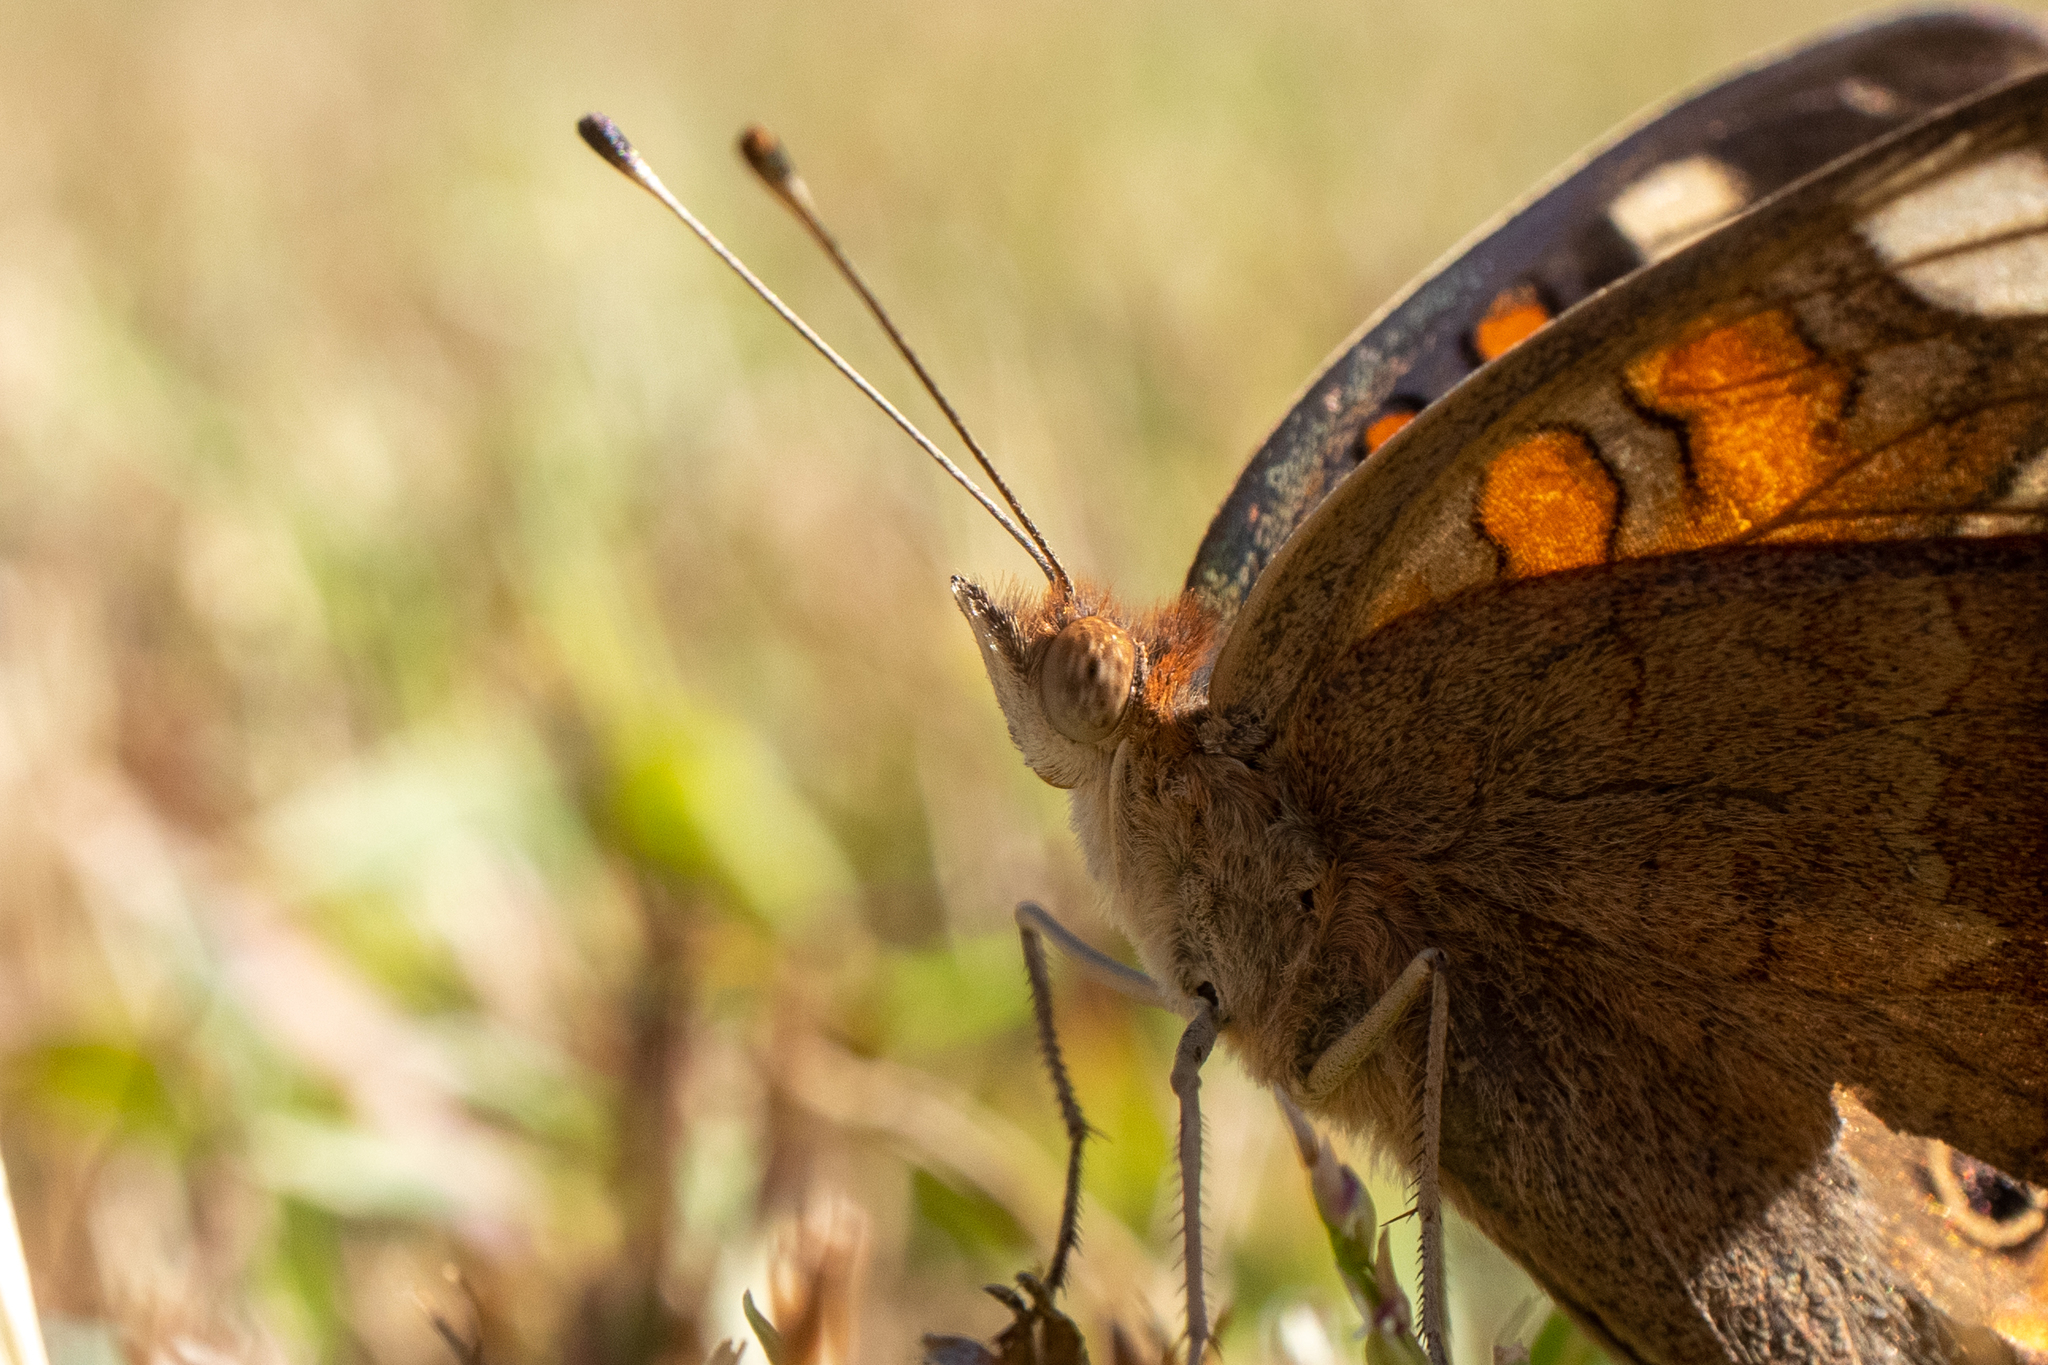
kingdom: Animalia
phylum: Arthropoda
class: Insecta
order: Lepidoptera
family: Nymphalidae
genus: Junonia
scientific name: Junonia coenia
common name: Common buckeye
